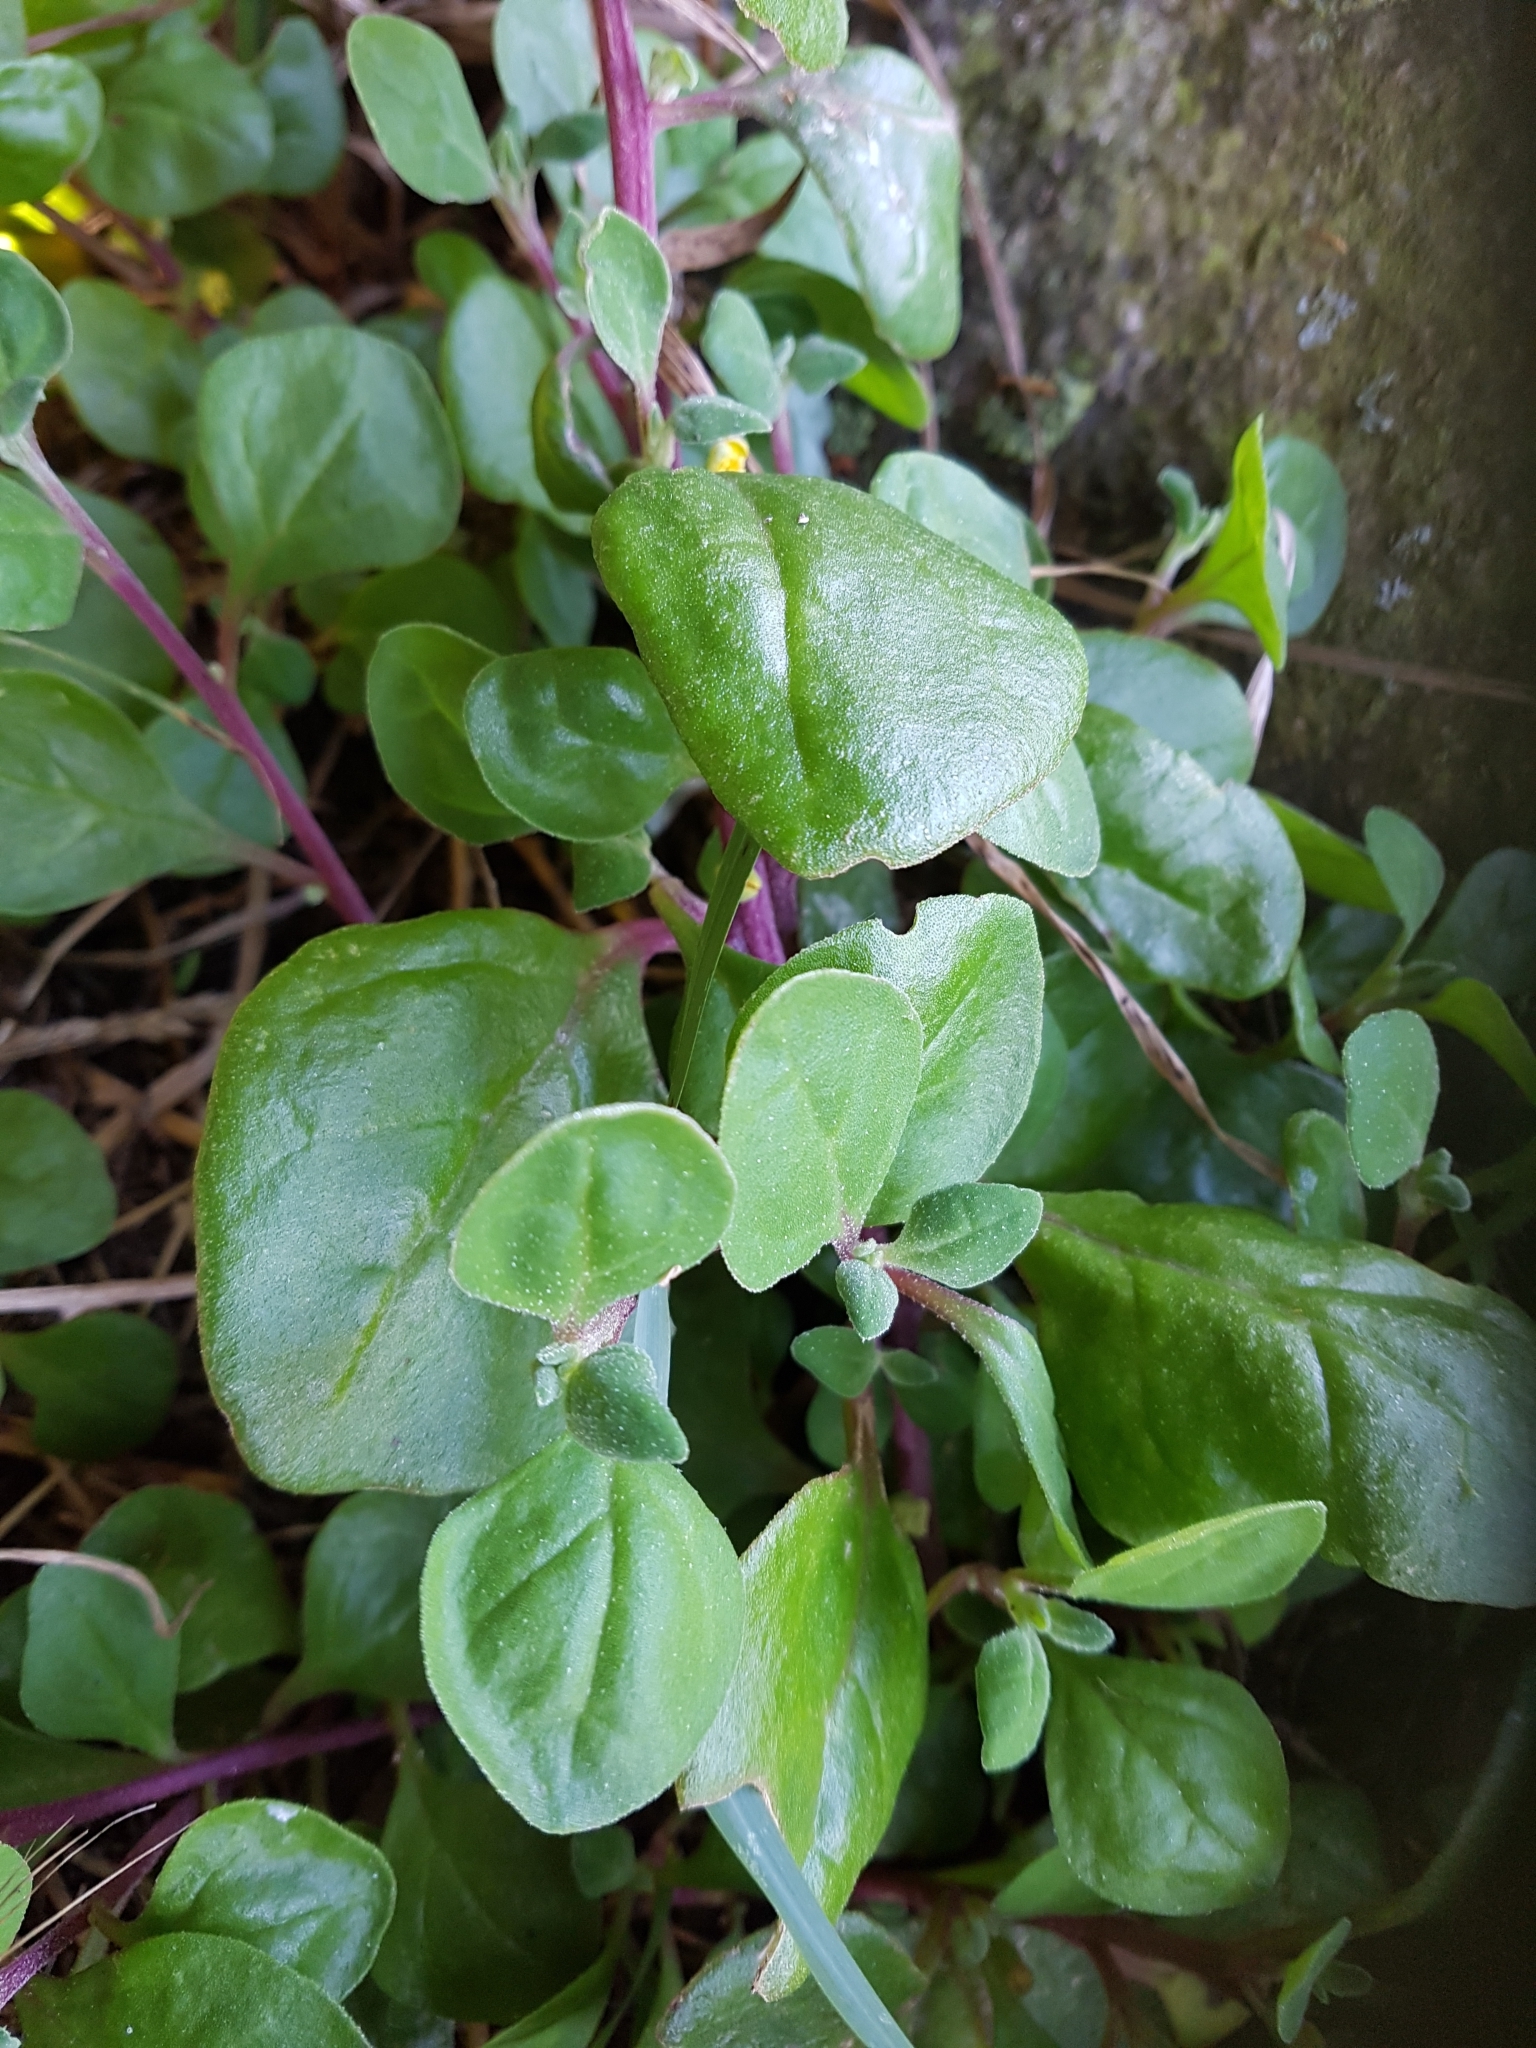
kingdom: Plantae
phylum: Tracheophyta
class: Magnoliopsida
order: Caryophyllales
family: Aizoaceae
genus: Tetragonia
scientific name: Tetragonia implexicoma
